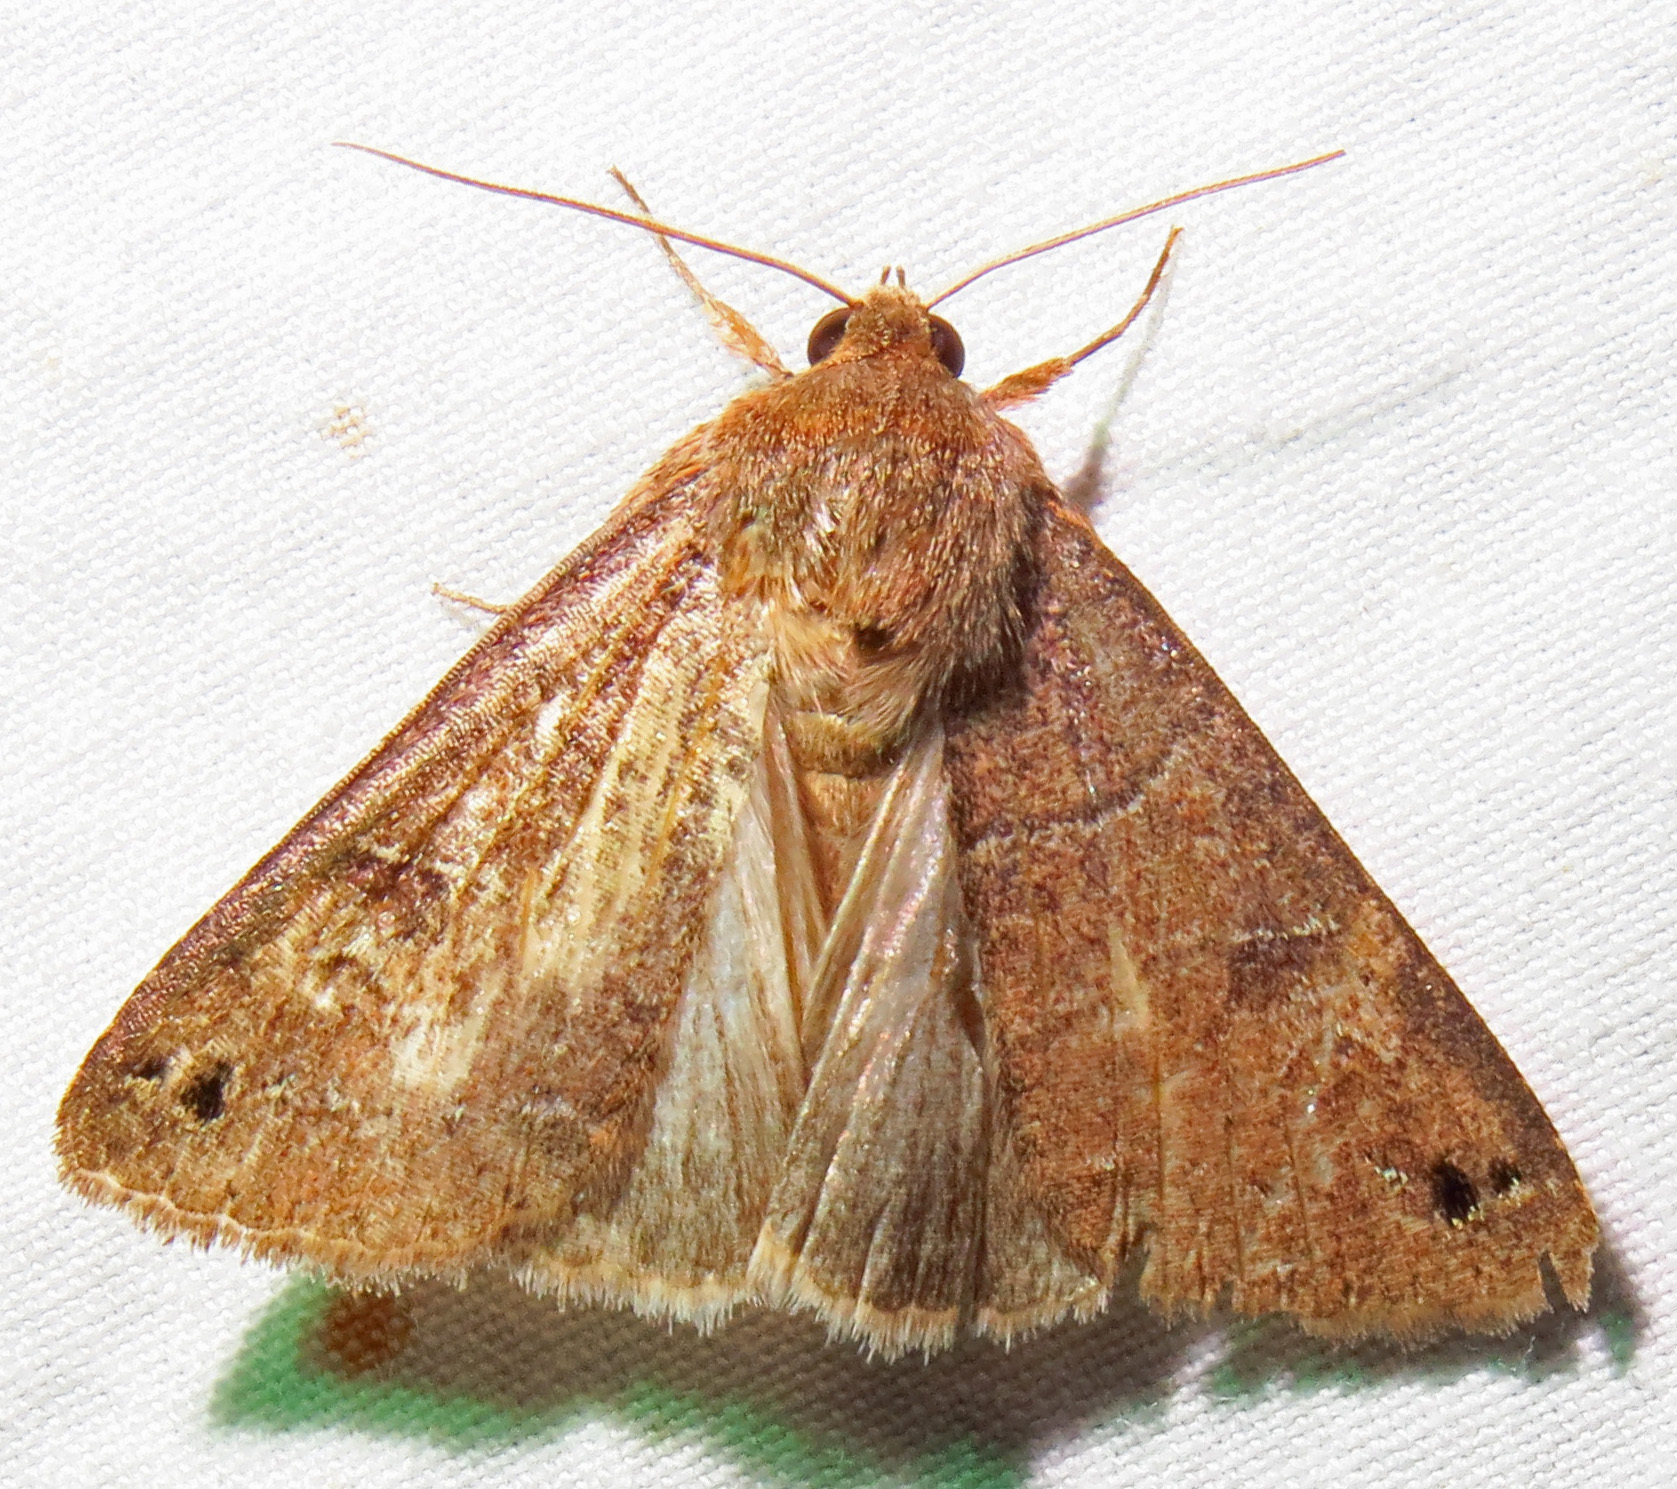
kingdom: Animalia
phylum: Arthropoda
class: Insecta
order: Lepidoptera
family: Erebidae
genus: Cissusa
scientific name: Cissusa spadix
